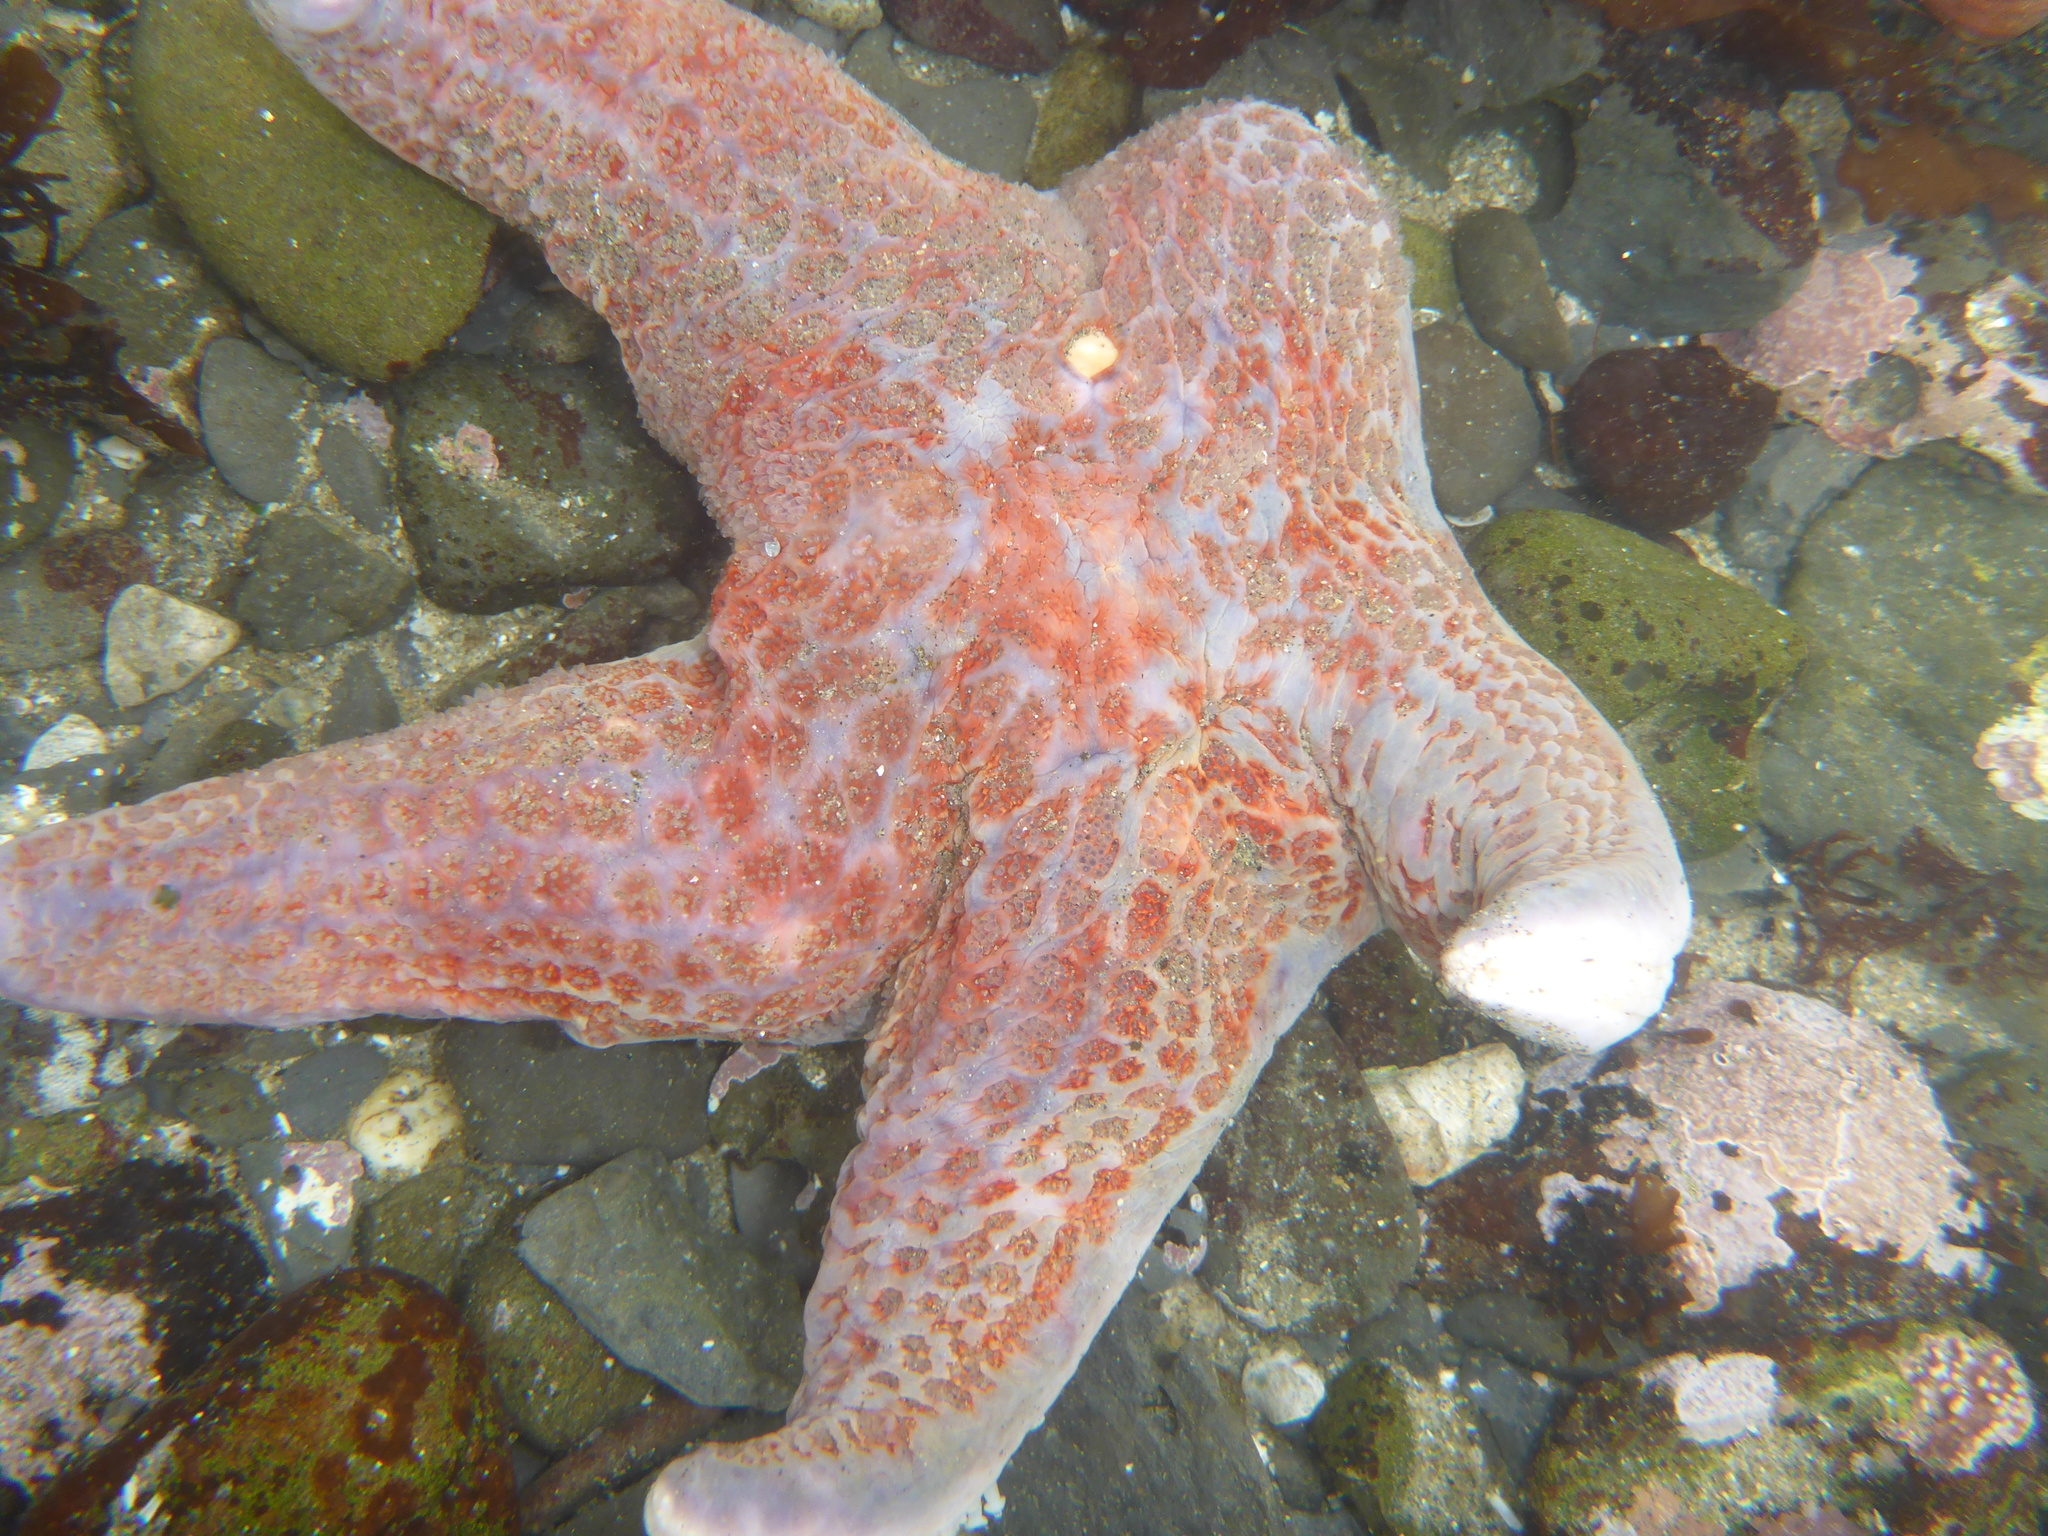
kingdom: Animalia
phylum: Echinodermata
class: Asteroidea
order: Valvatida
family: Asteropseidae
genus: Dermasterias
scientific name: Dermasterias imbricata
